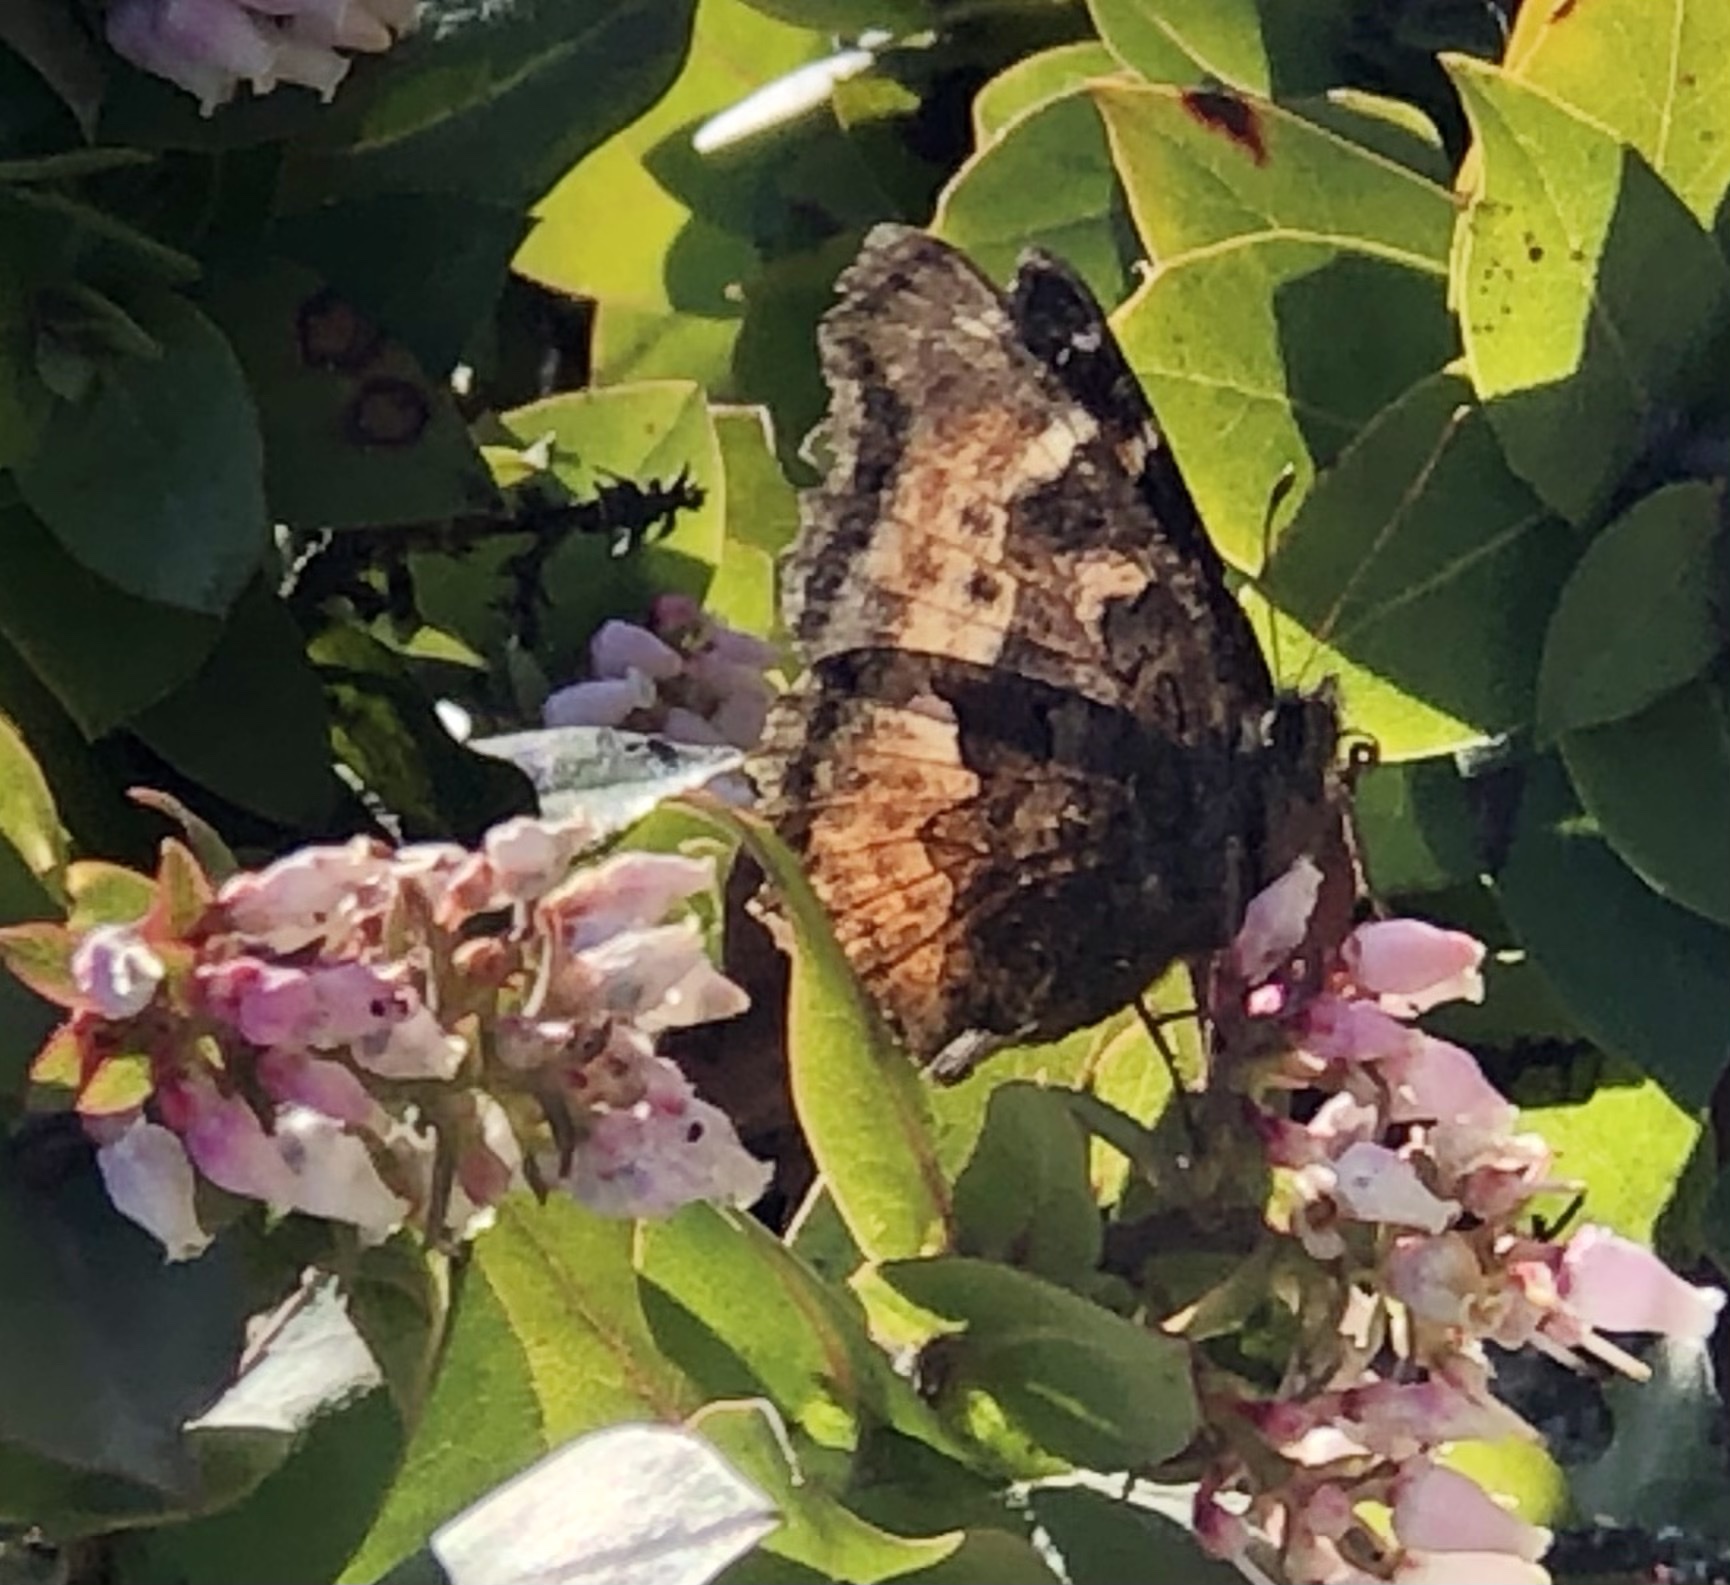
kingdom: Animalia
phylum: Arthropoda
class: Insecta
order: Lepidoptera
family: Nymphalidae
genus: Nymphalis
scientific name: Nymphalis californica
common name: California tortoiseshell
